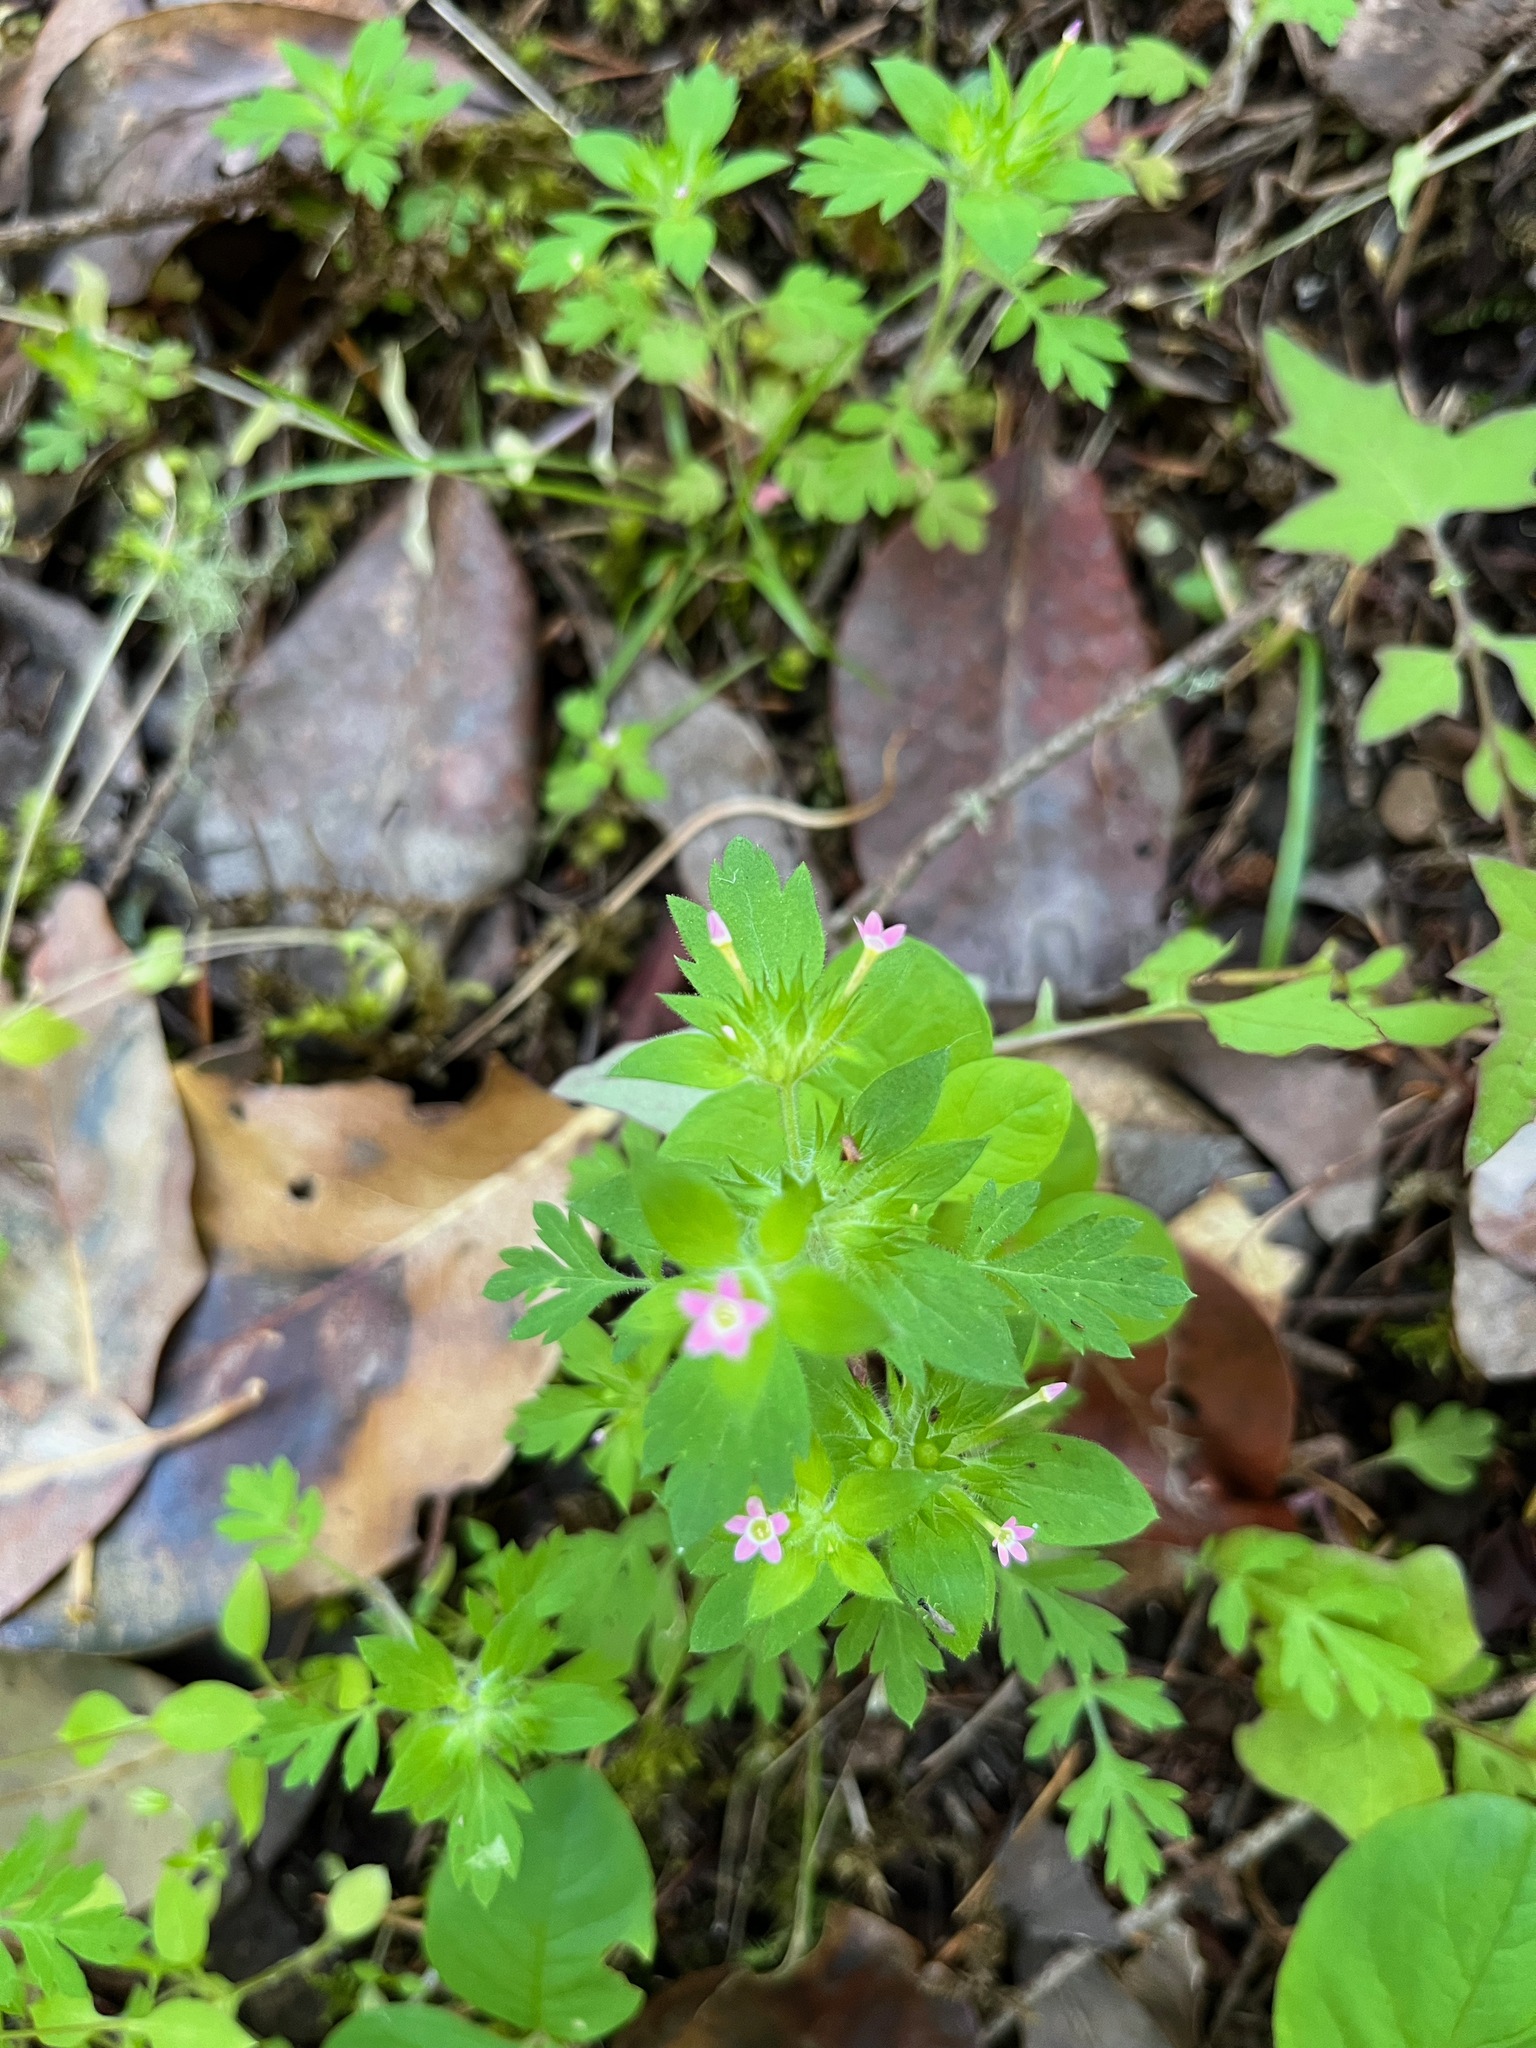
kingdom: Plantae
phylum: Tracheophyta
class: Magnoliopsida
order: Ericales
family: Polemoniaceae
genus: Collomia
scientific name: Collomia heterophylla
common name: Variable-leaved collomia
